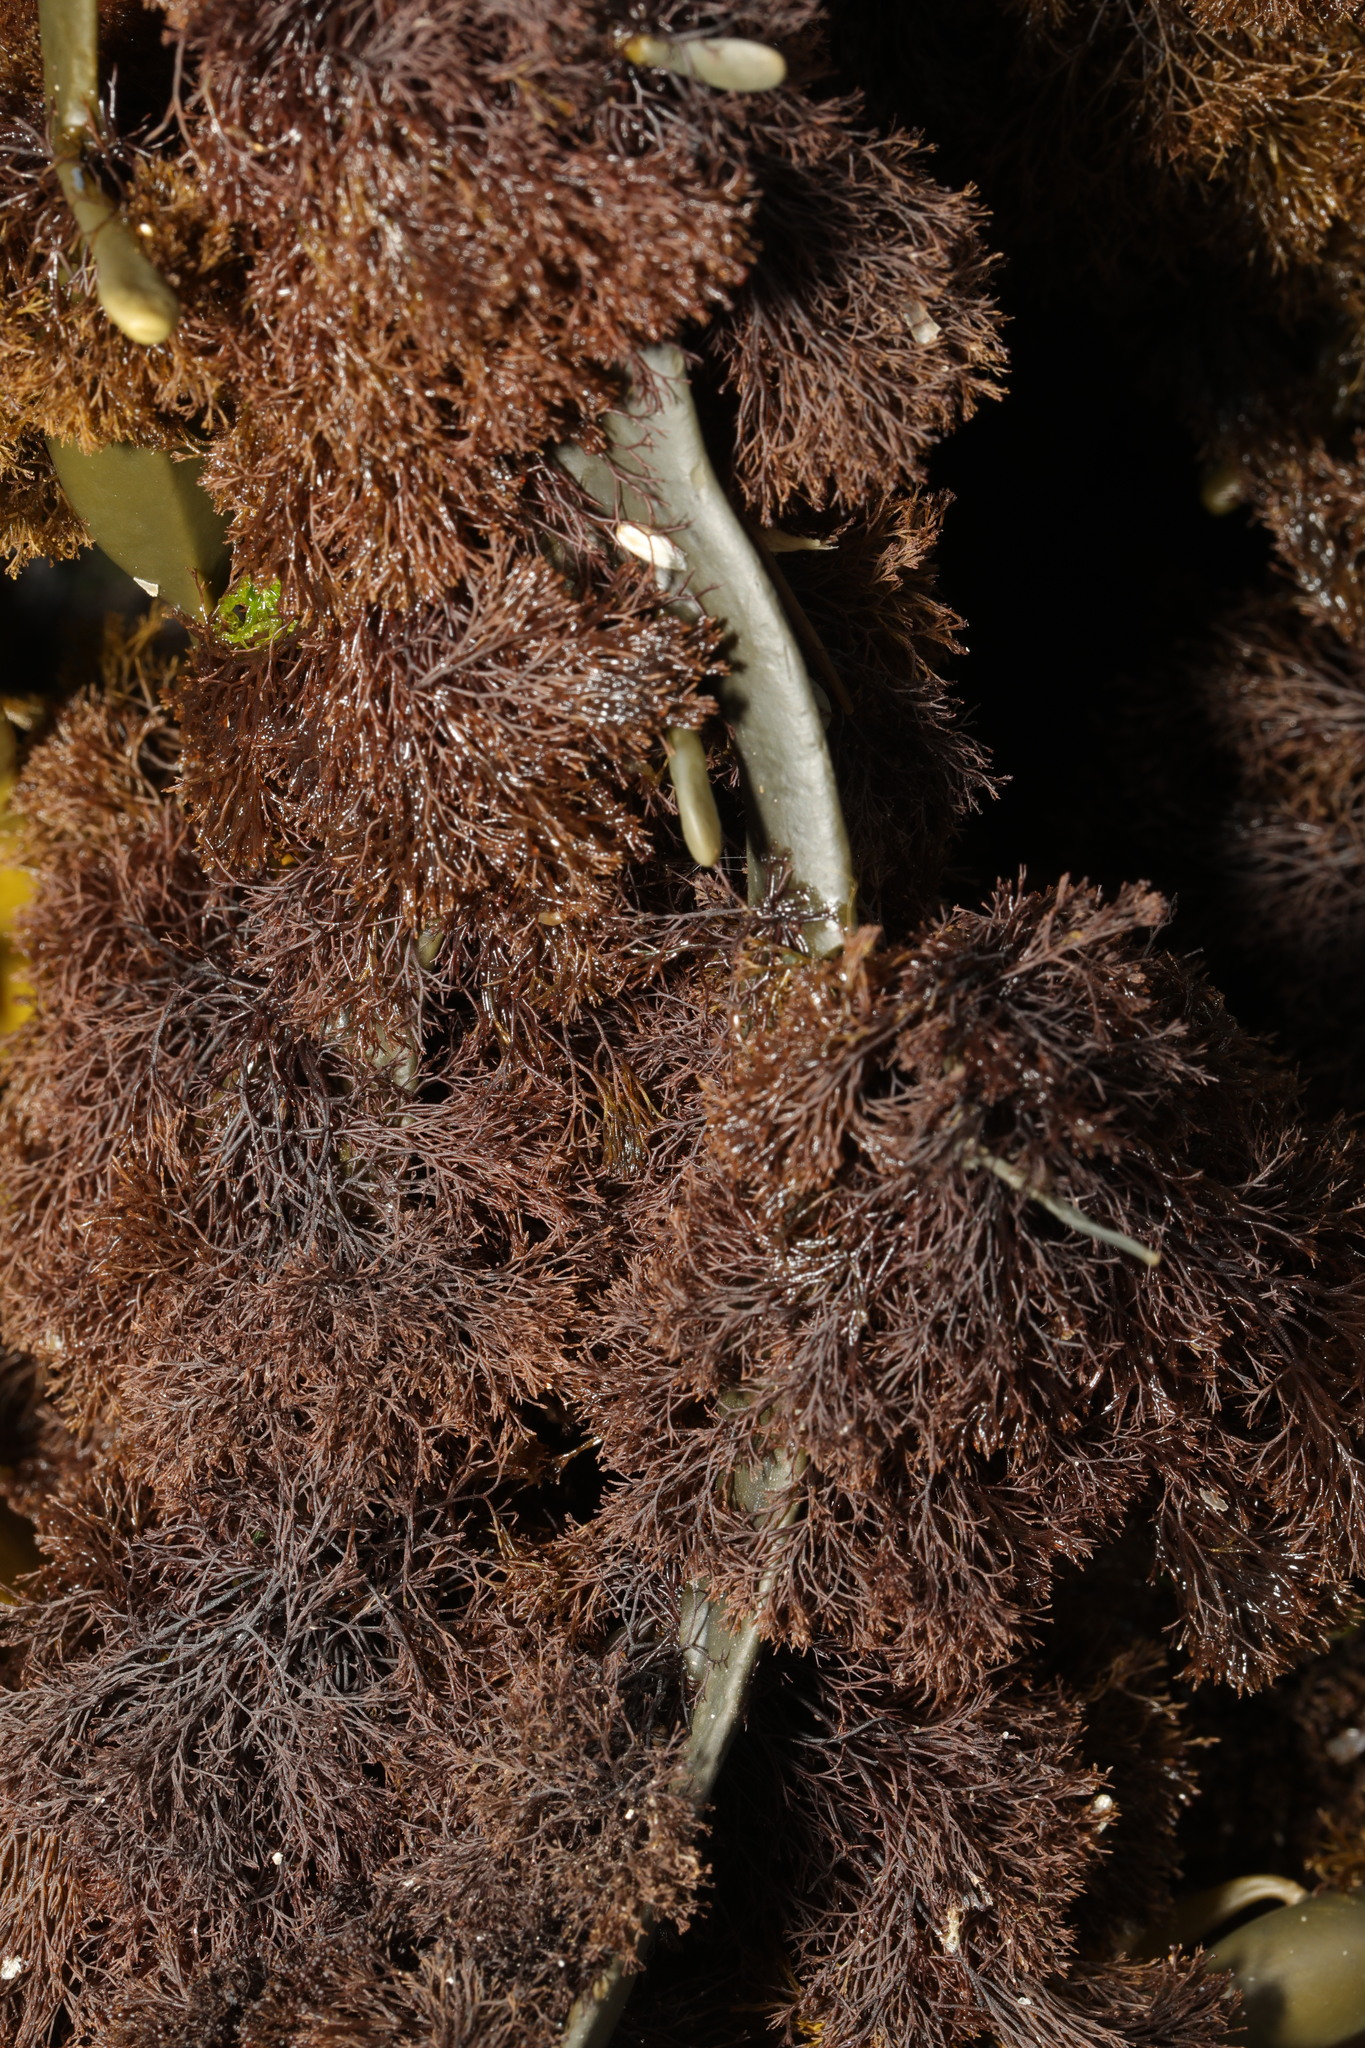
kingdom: Plantae
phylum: Rhodophyta
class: Florideophyceae
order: Ceramiales
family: Rhodomelaceae
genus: Vertebrata
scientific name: Vertebrata lanosa
